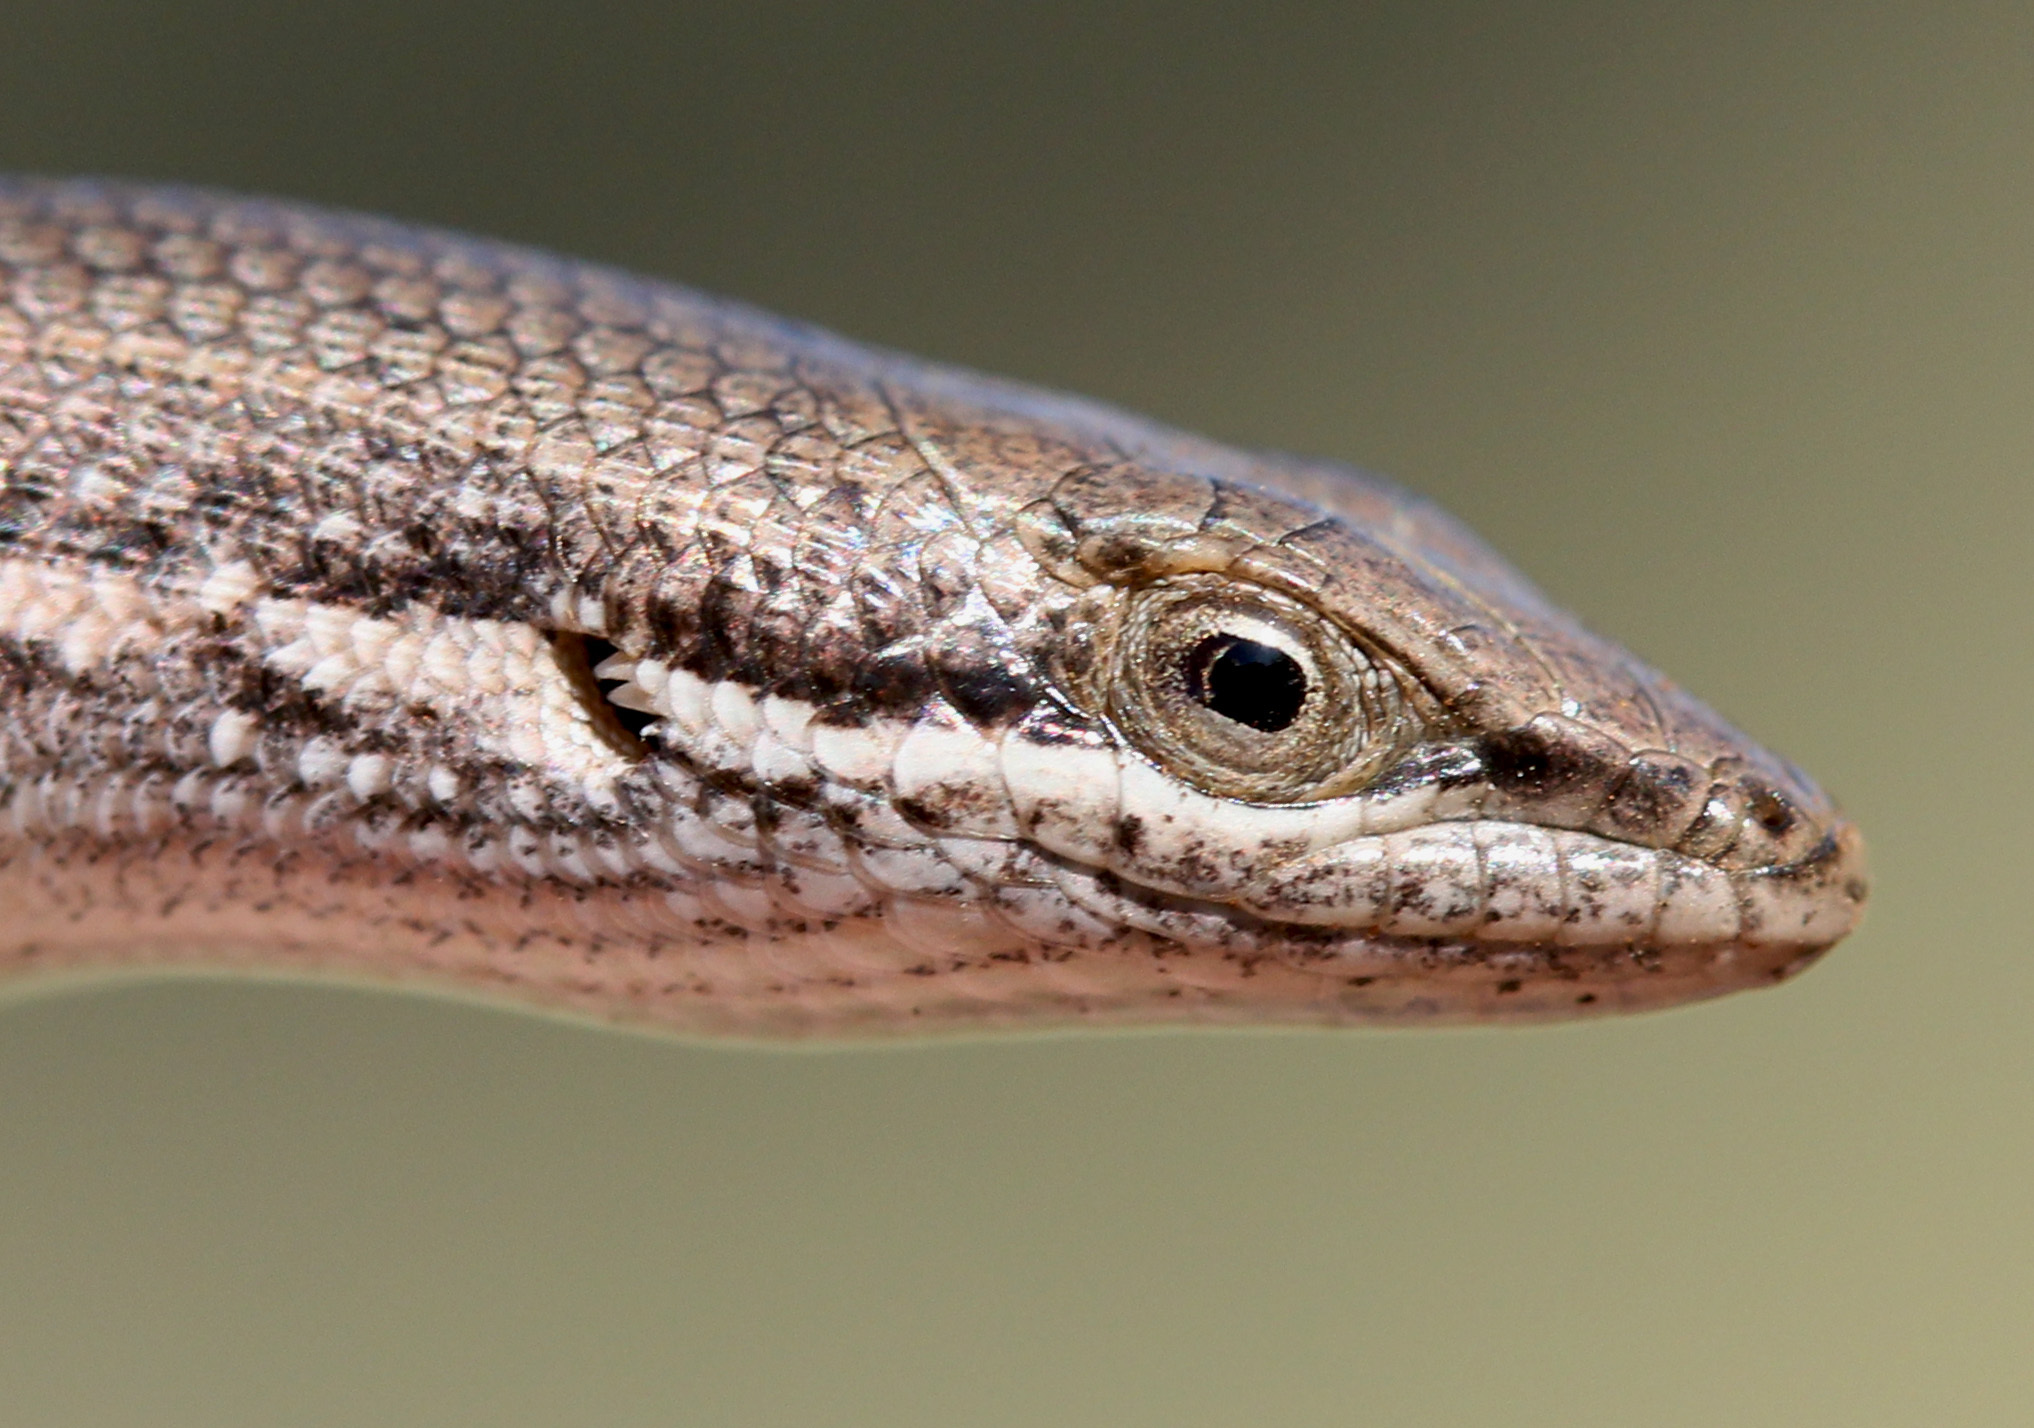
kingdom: Animalia
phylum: Chordata
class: Squamata
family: Scincidae
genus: Trachylepis
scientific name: Trachylepis punctulata
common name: Speckled sand skink
